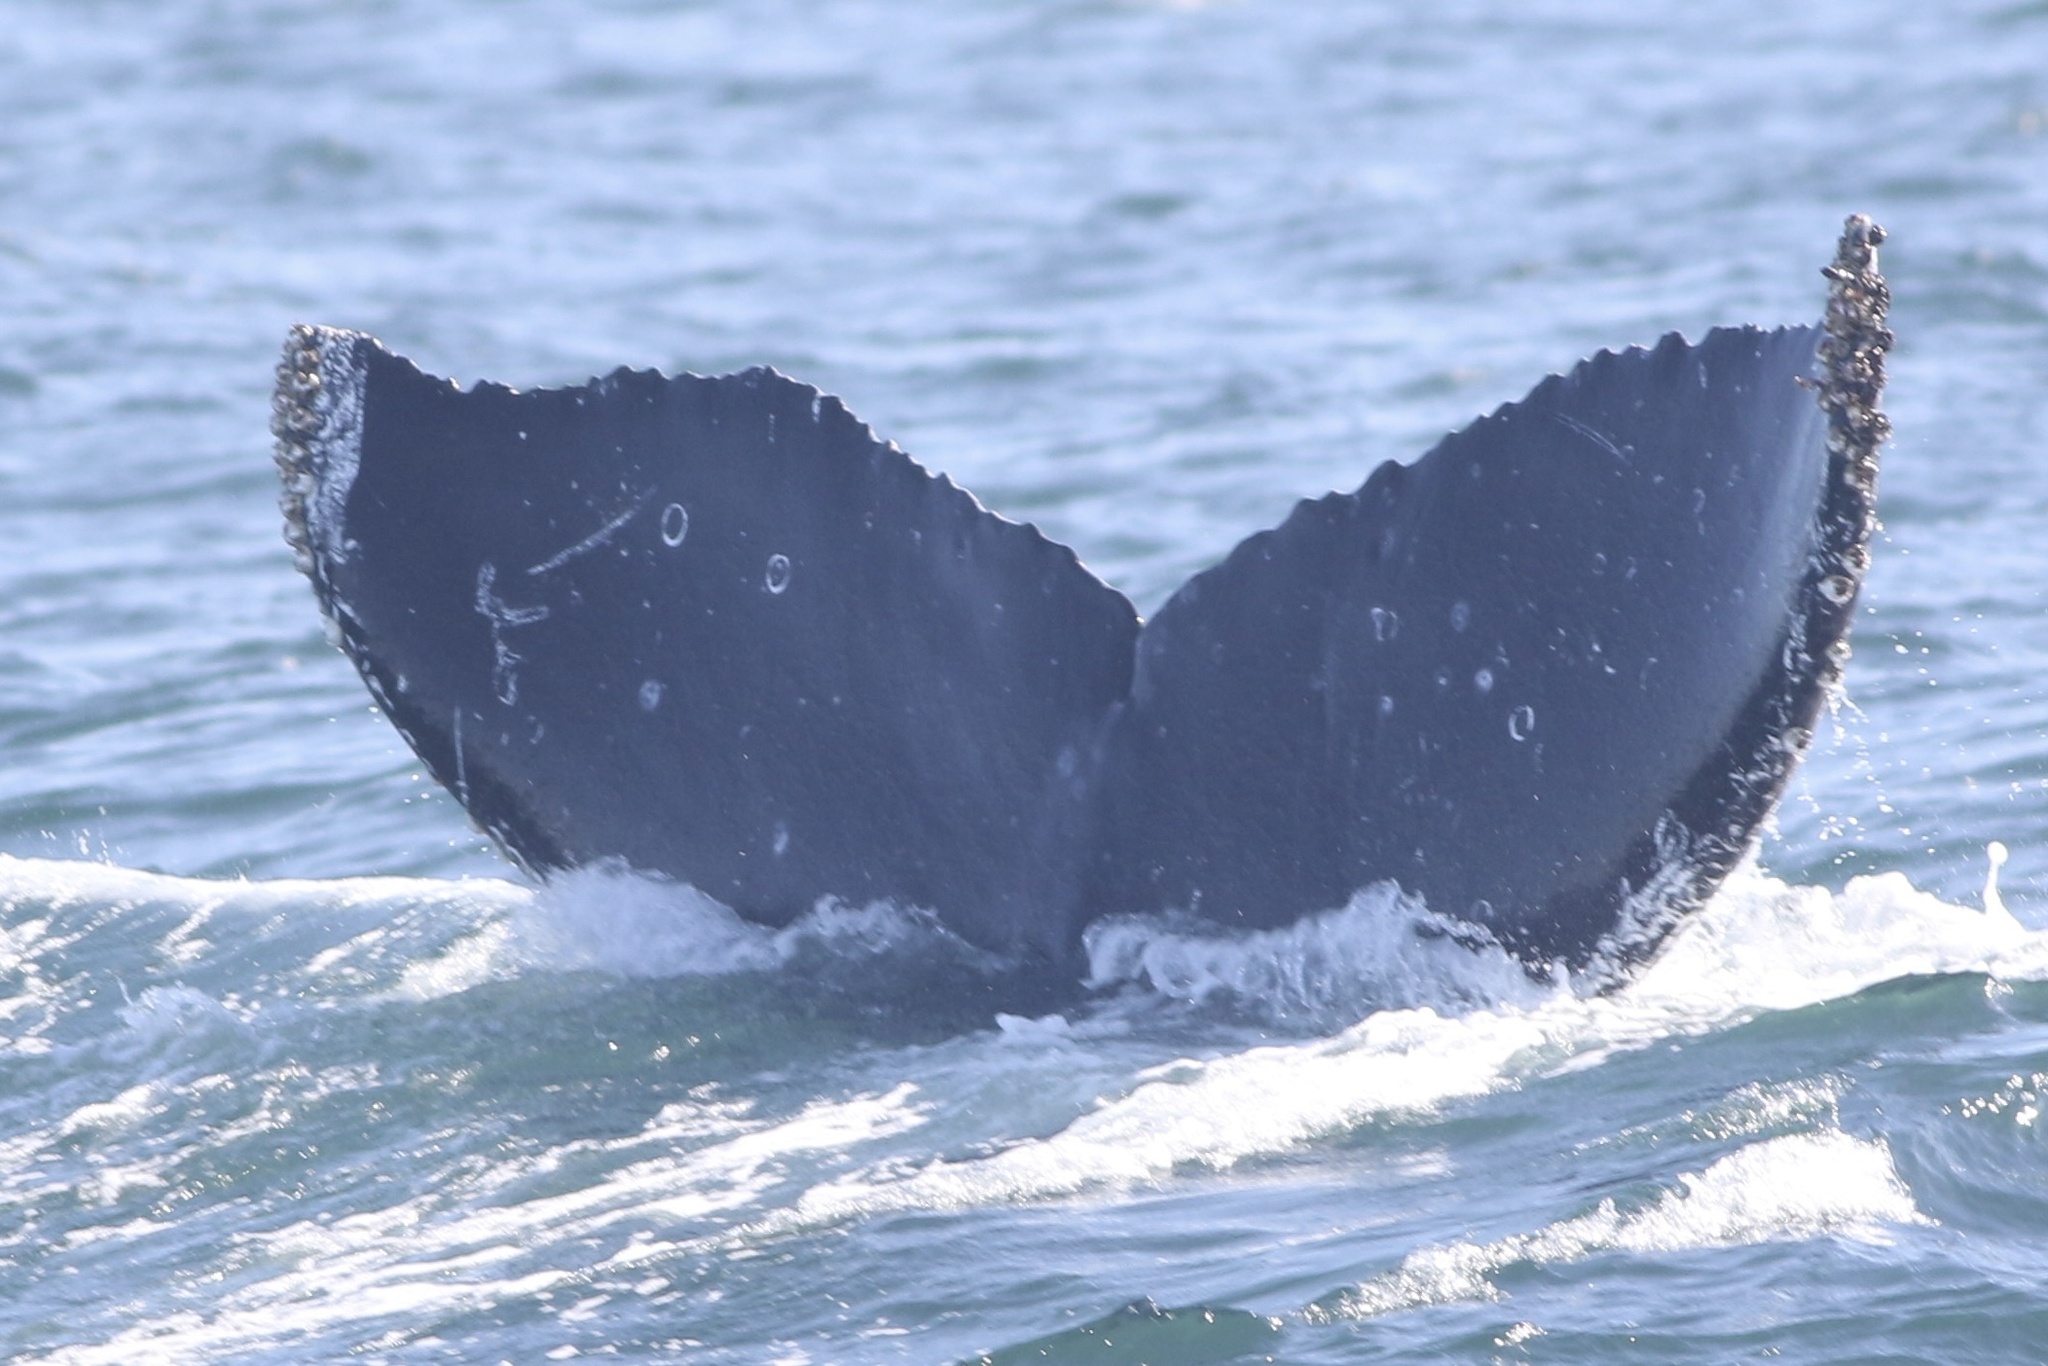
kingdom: Animalia
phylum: Chordata
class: Mammalia
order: Cetacea
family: Balaenopteridae
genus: Megaptera
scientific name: Megaptera novaeangliae
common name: Humpback whale
